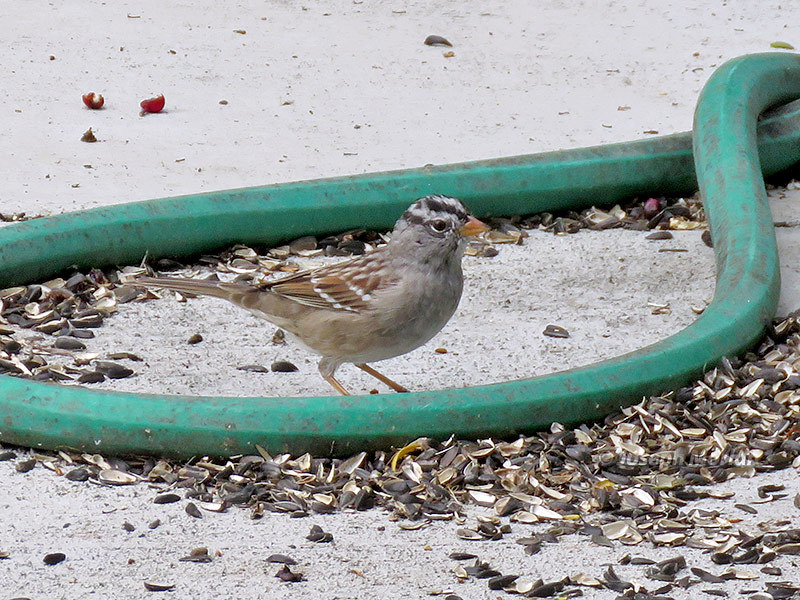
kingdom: Animalia
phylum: Chordata
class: Aves
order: Passeriformes
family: Passerellidae
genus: Zonotrichia
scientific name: Zonotrichia leucophrys
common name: White-crowned sparrow
